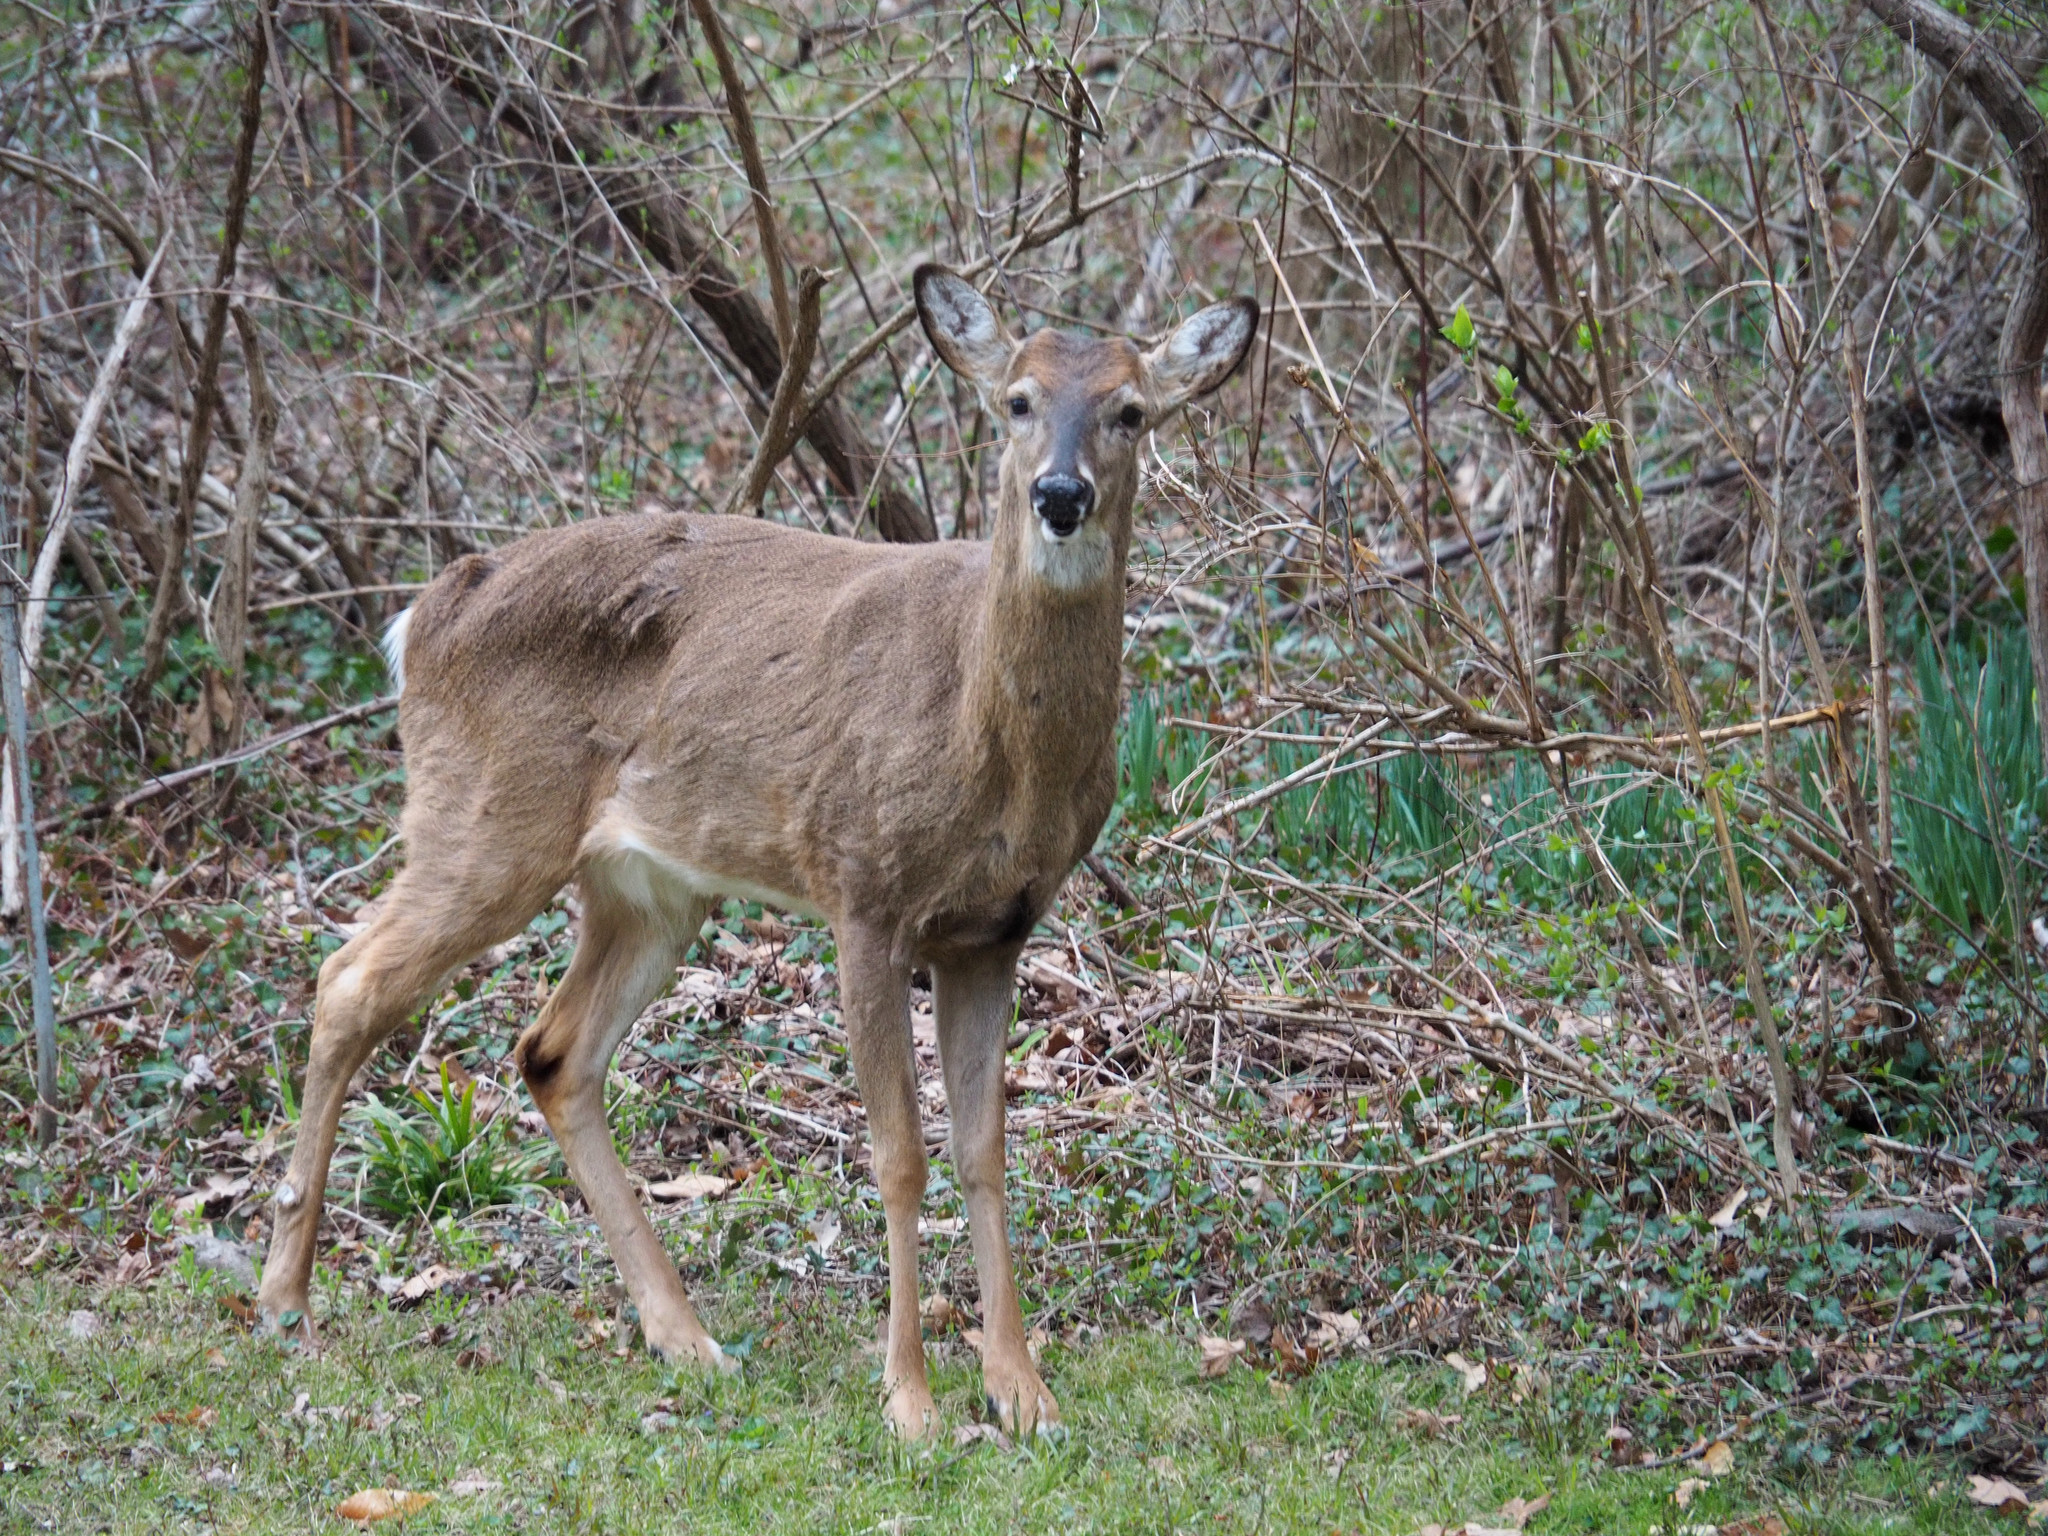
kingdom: Animalia
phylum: Chordata
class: Mammalia
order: Artiodactyla
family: Cervidae
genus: Odocoileus
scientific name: Odocoileus virginianus
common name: White-tailed deer
